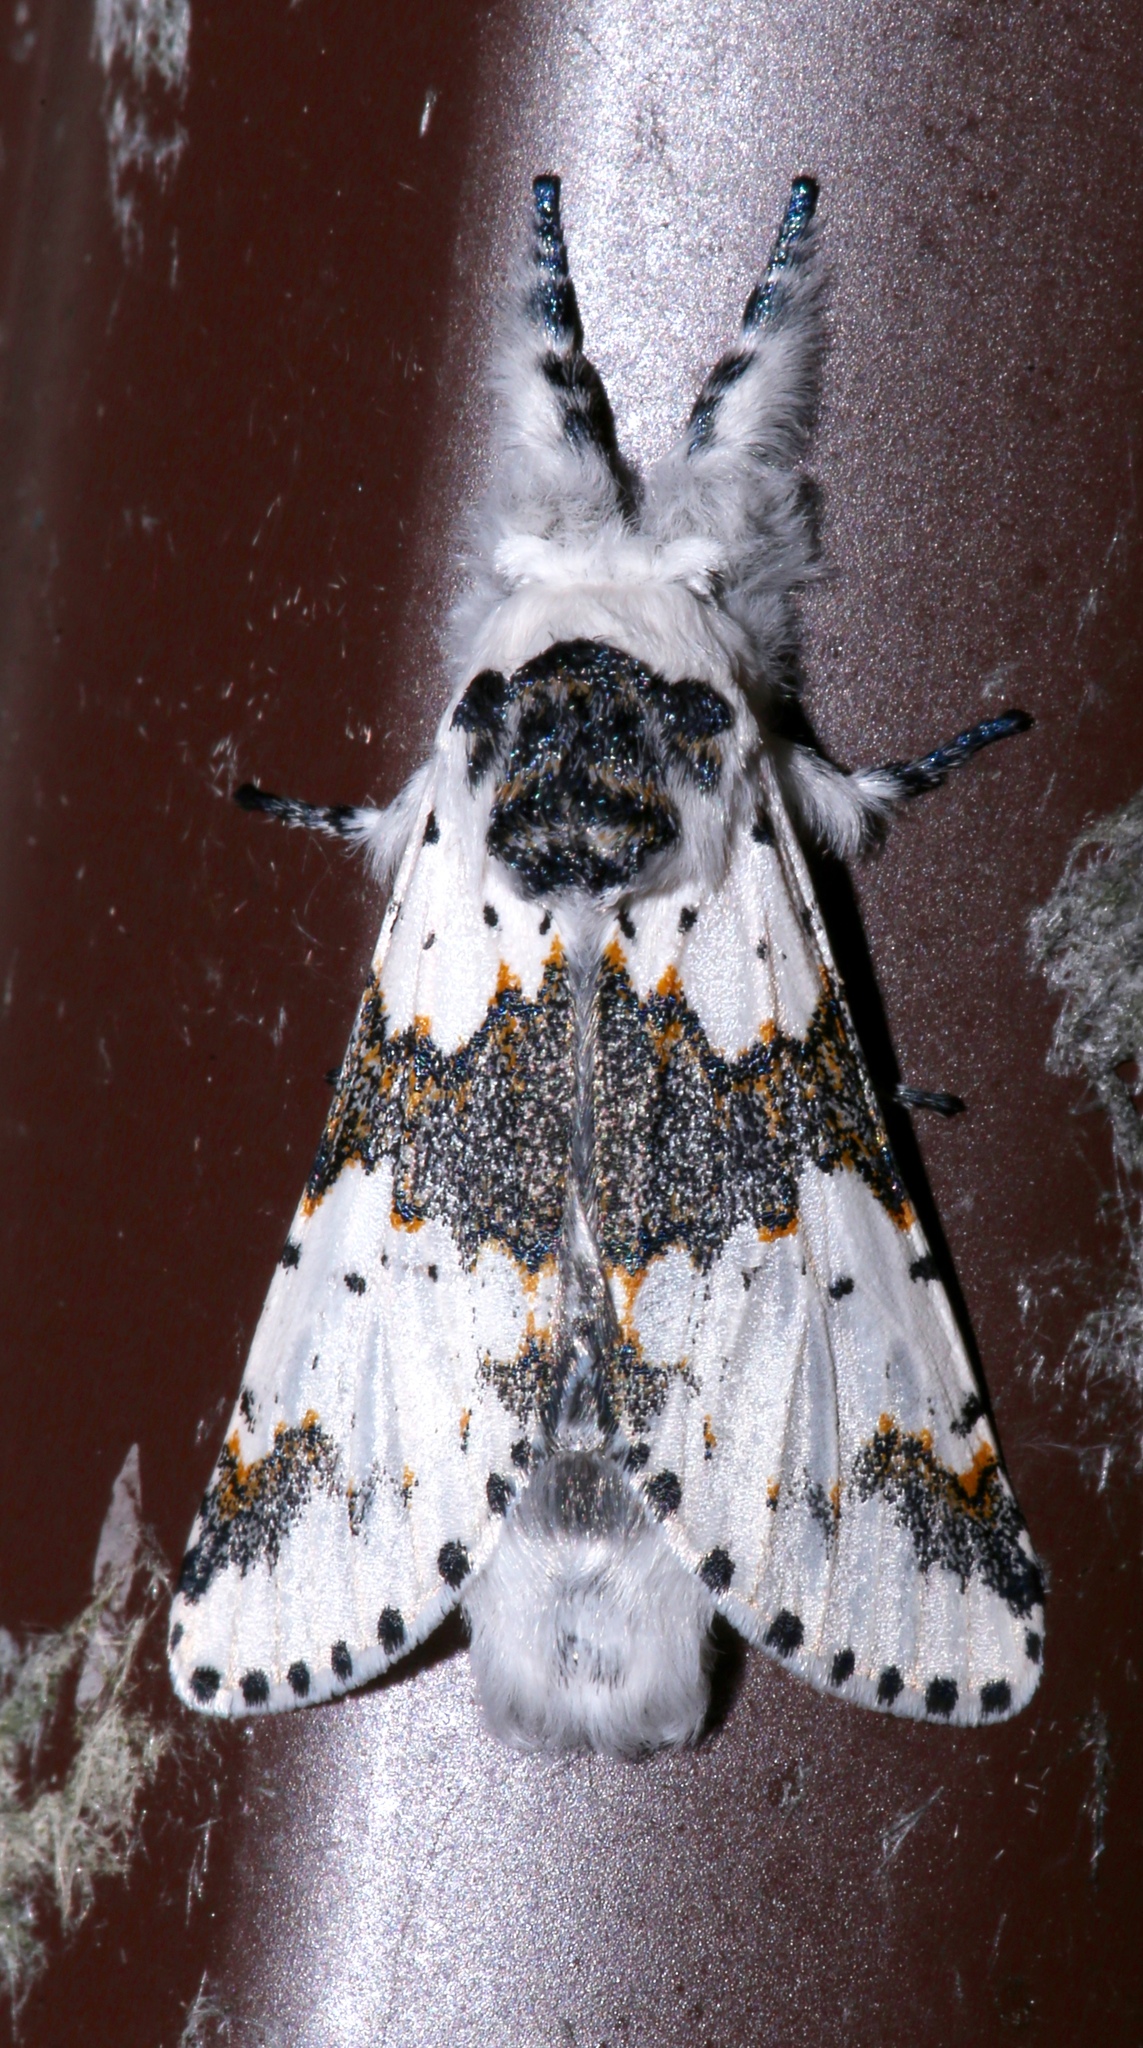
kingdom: Animalia
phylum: Arthropoda
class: Insecta
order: Lepidoptera
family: Notodontidae
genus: Furcula
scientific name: Furcula borealis
